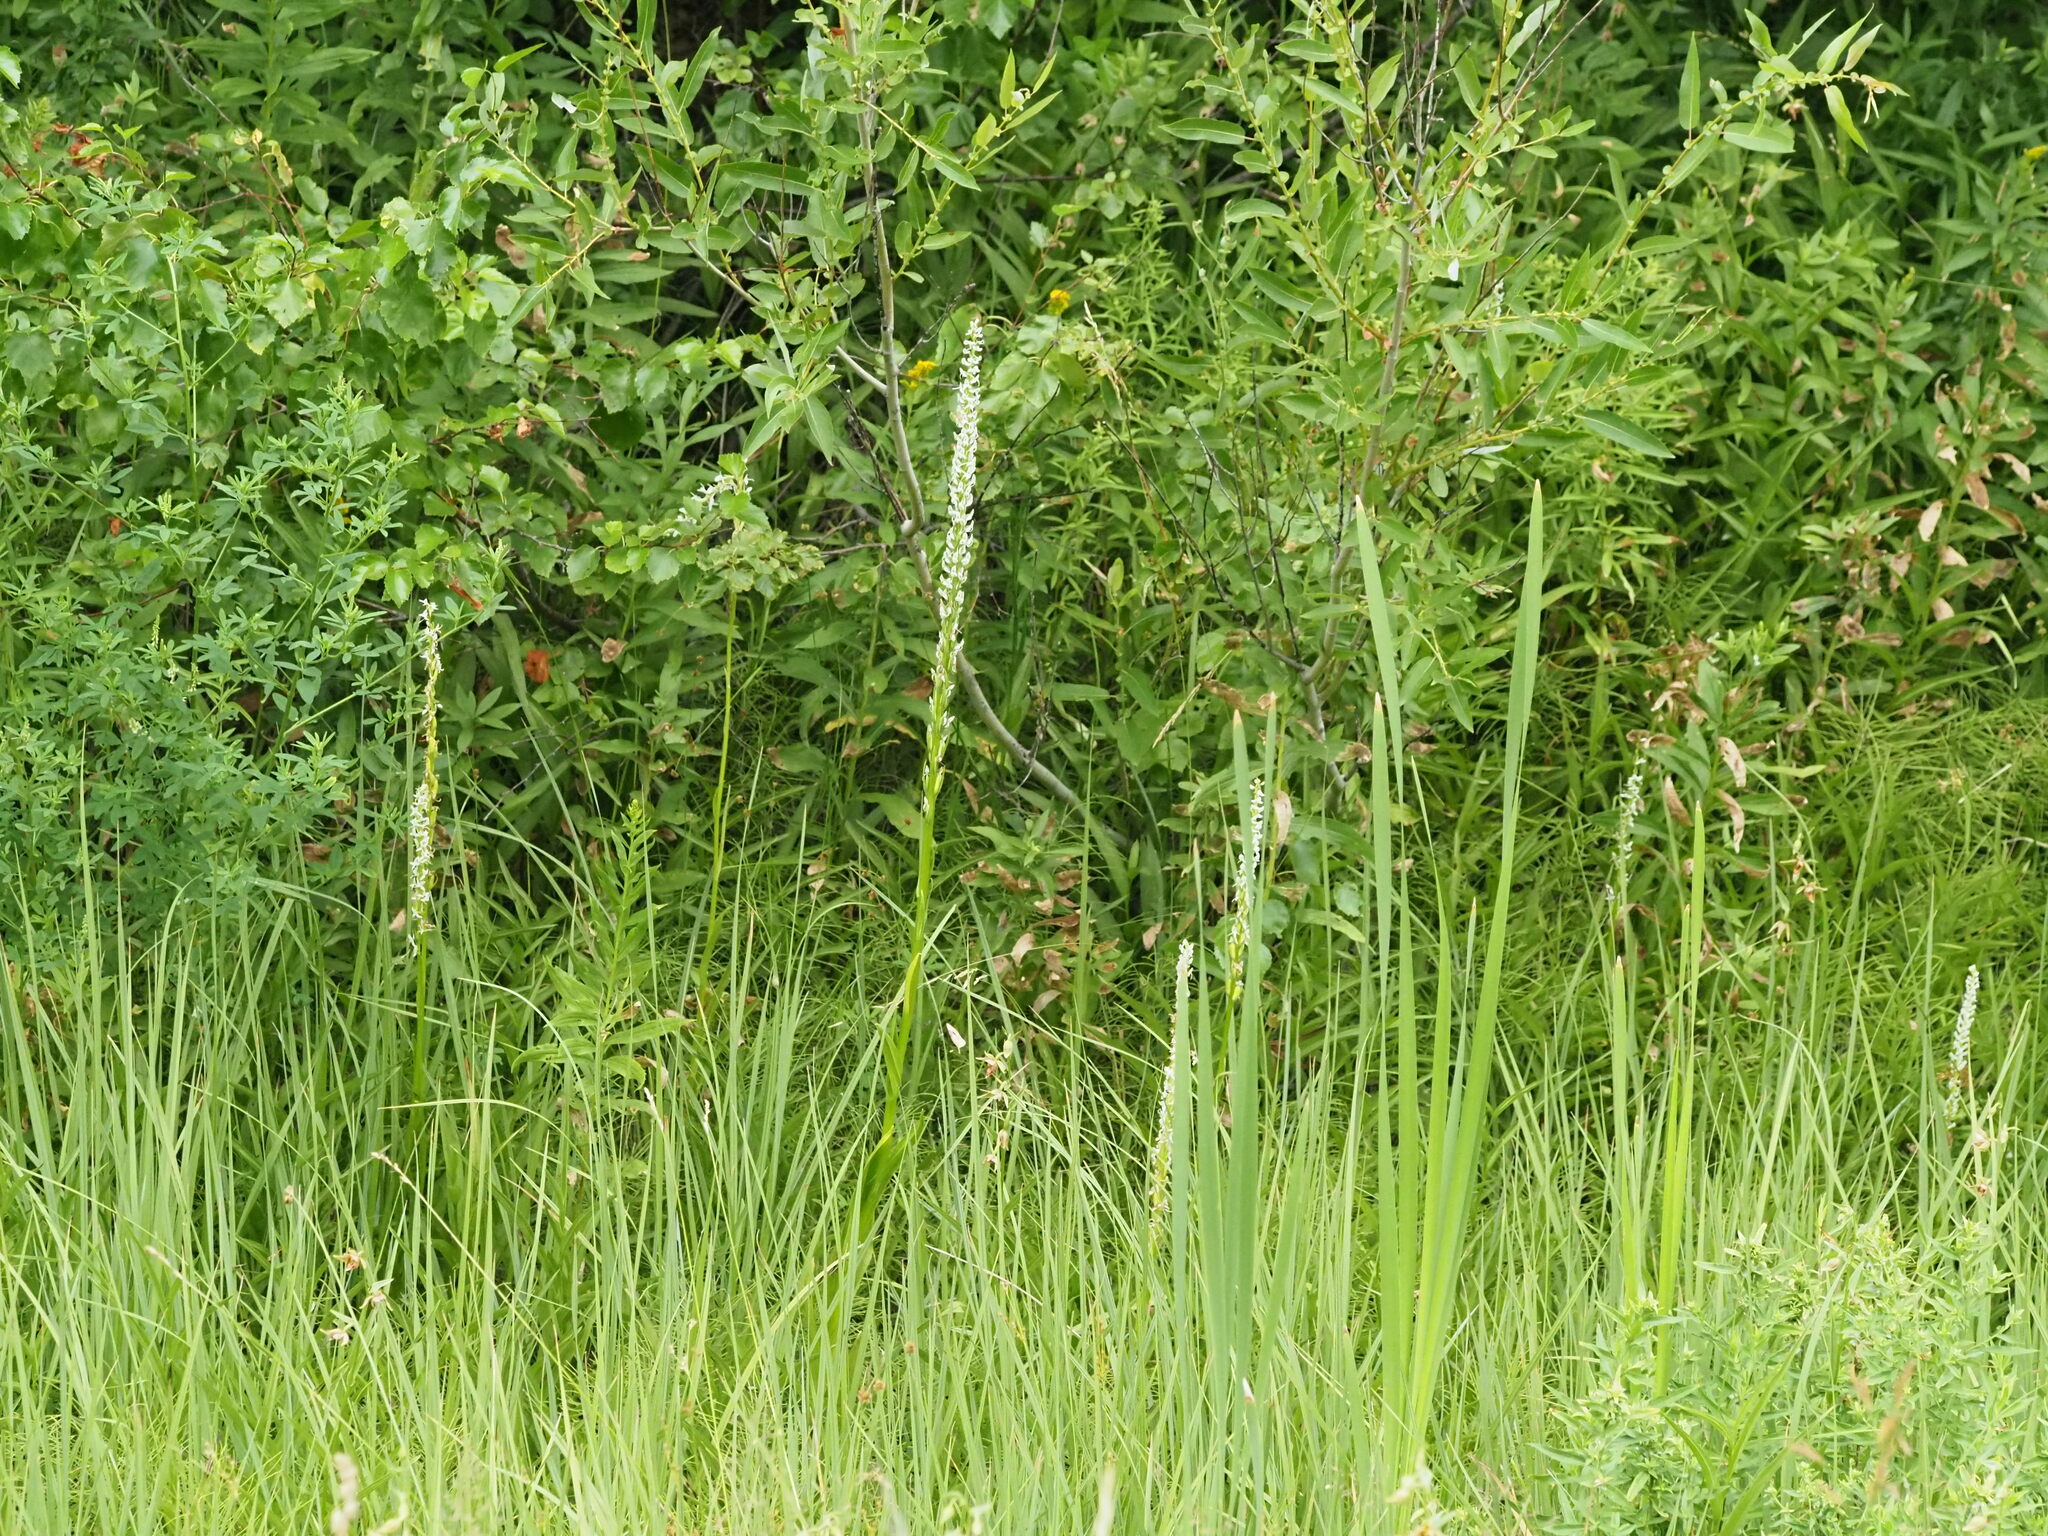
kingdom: Plantae
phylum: Tracheophyta
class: Liliopsida
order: Asparagales
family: Orchidaceae
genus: Platanthera
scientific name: Platanthera dilatata
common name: Bog candles
